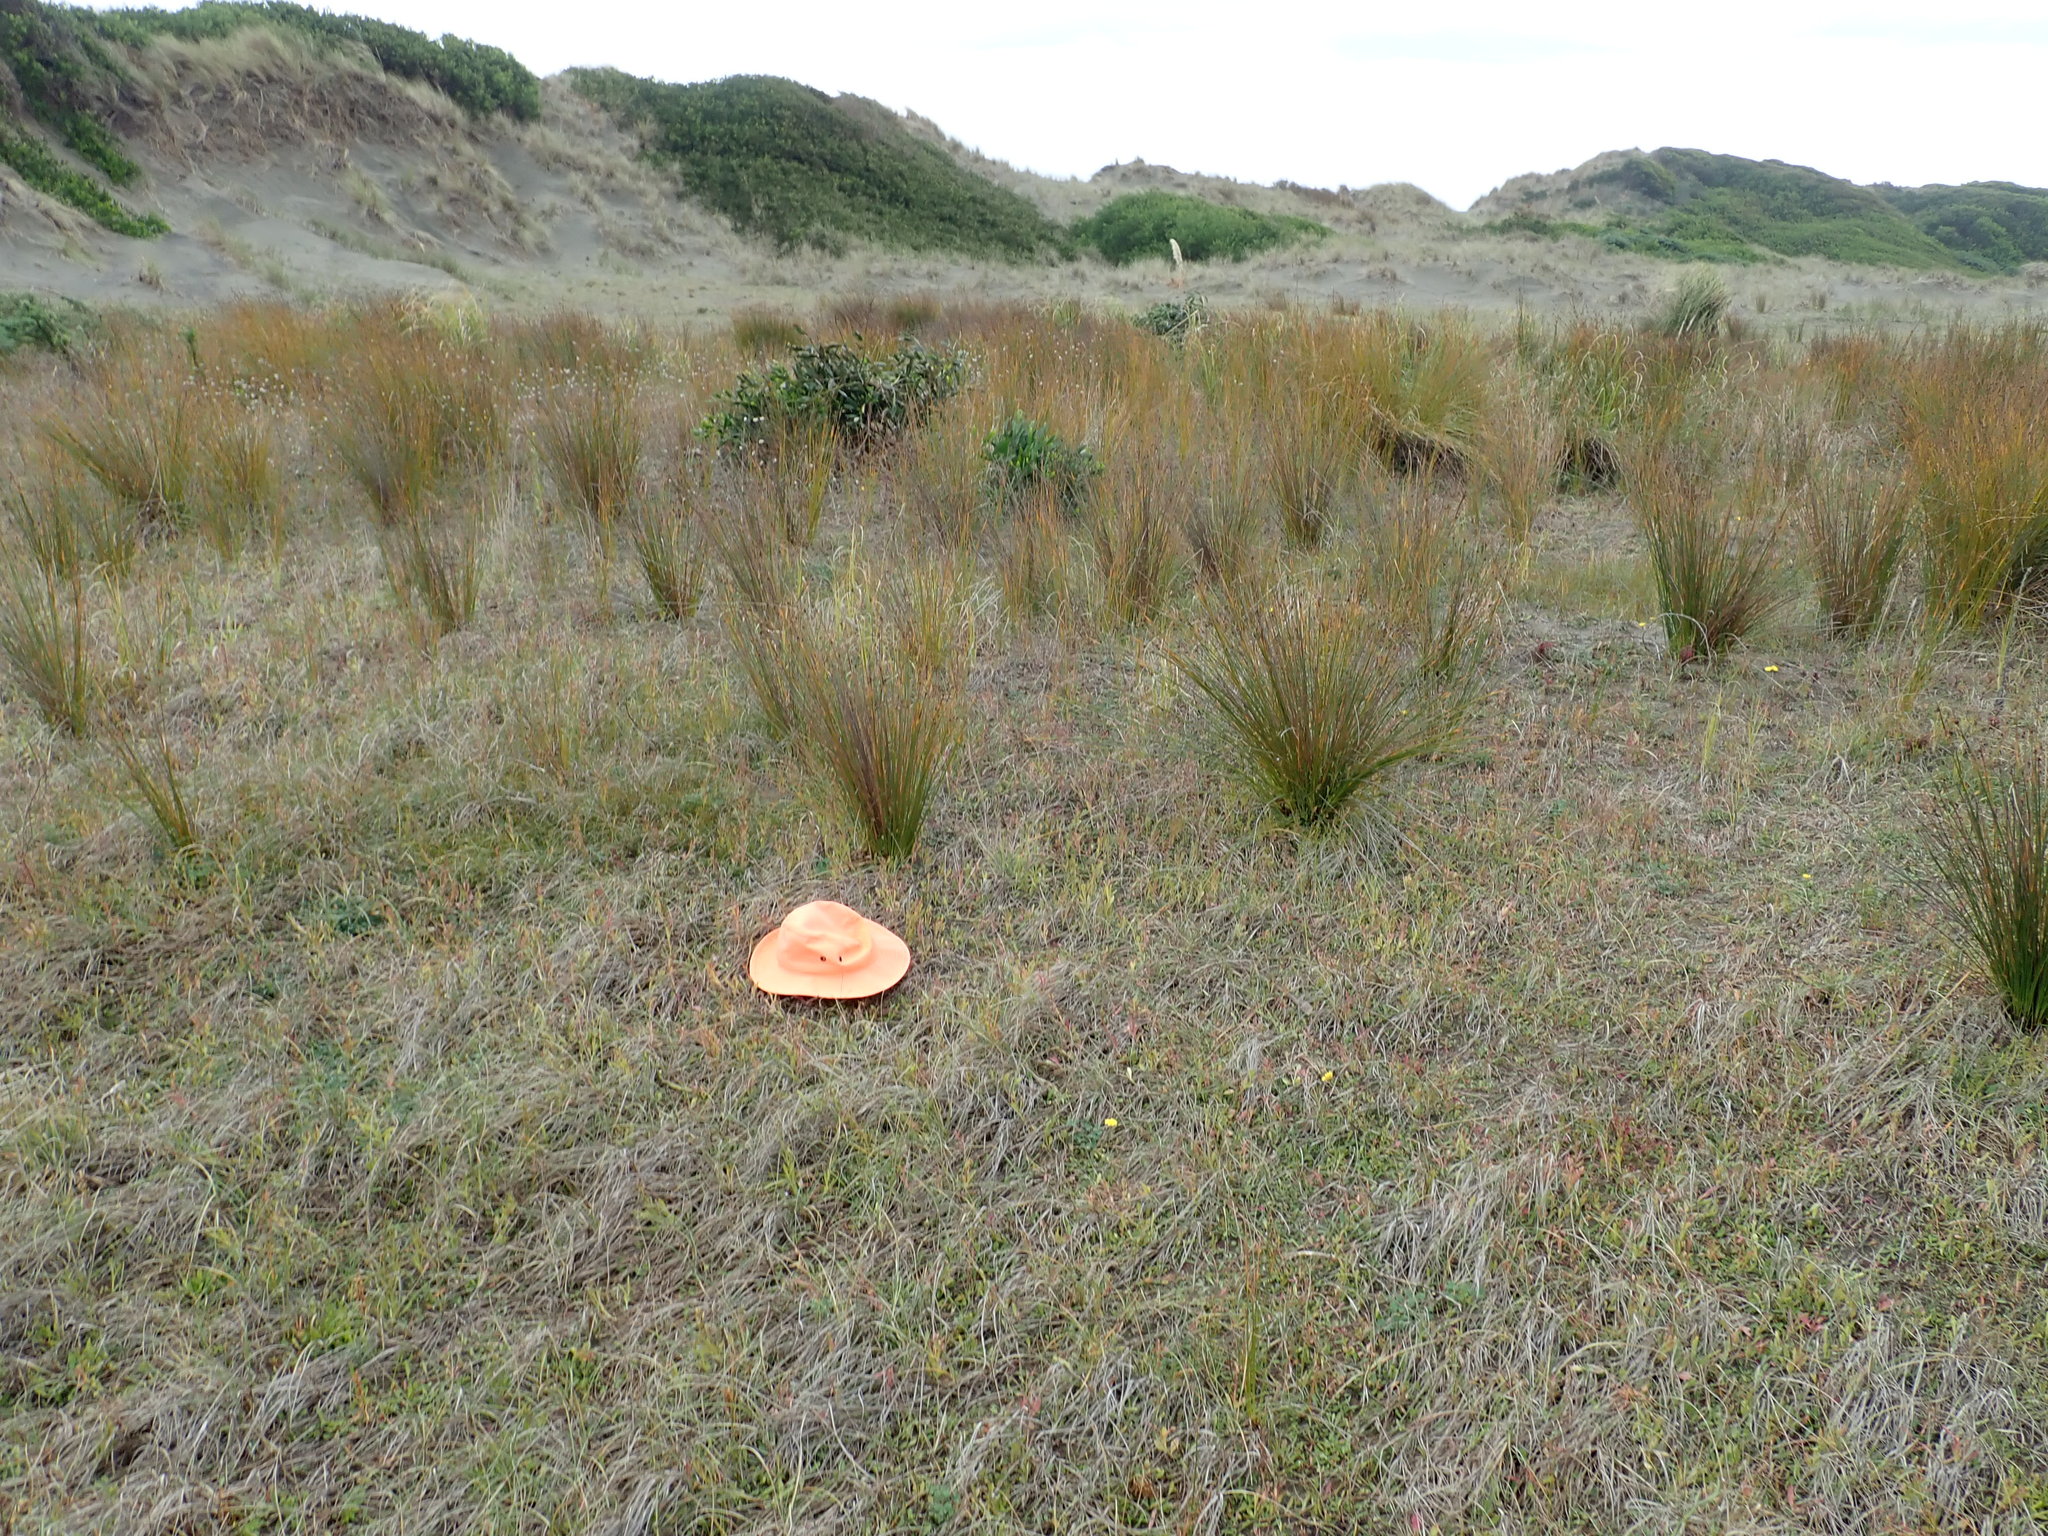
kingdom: Plantae
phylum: Tracheophyta
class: Magnoliopsida
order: Myrtales
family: Onagraceae
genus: Epilobium
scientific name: Epilobium billardiereanum
